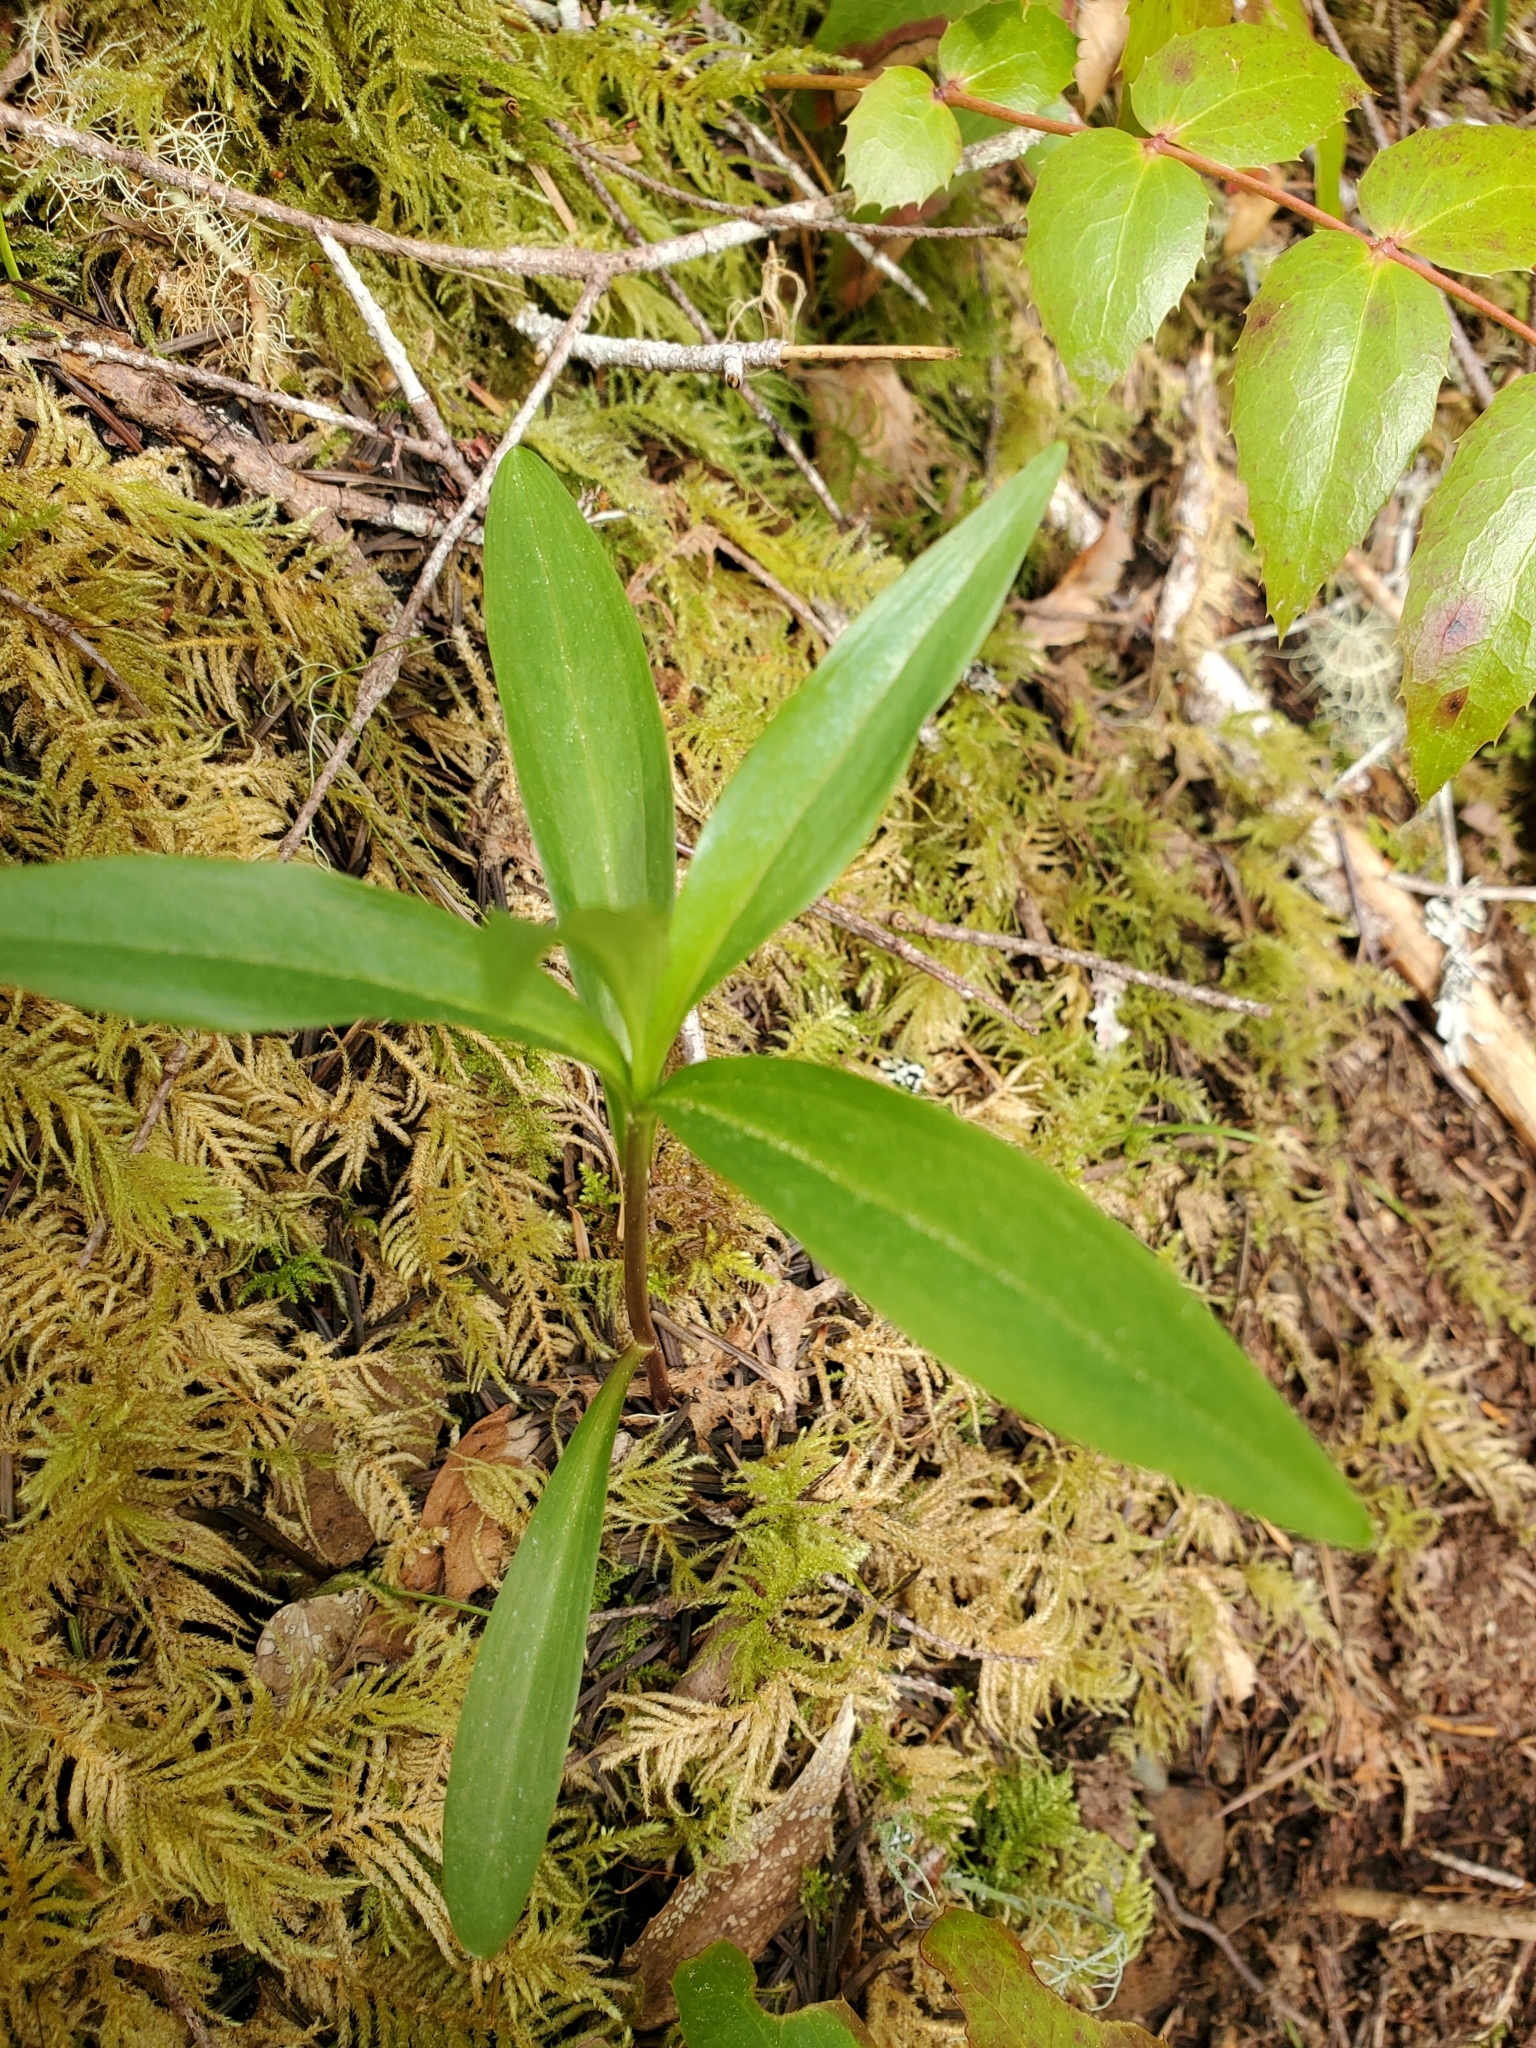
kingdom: Plantae
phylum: Tracheophyta
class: Liliopsida
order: Liliales
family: Liliaceae
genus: Lilium
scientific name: Lilium columbianum
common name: Columbia lily
